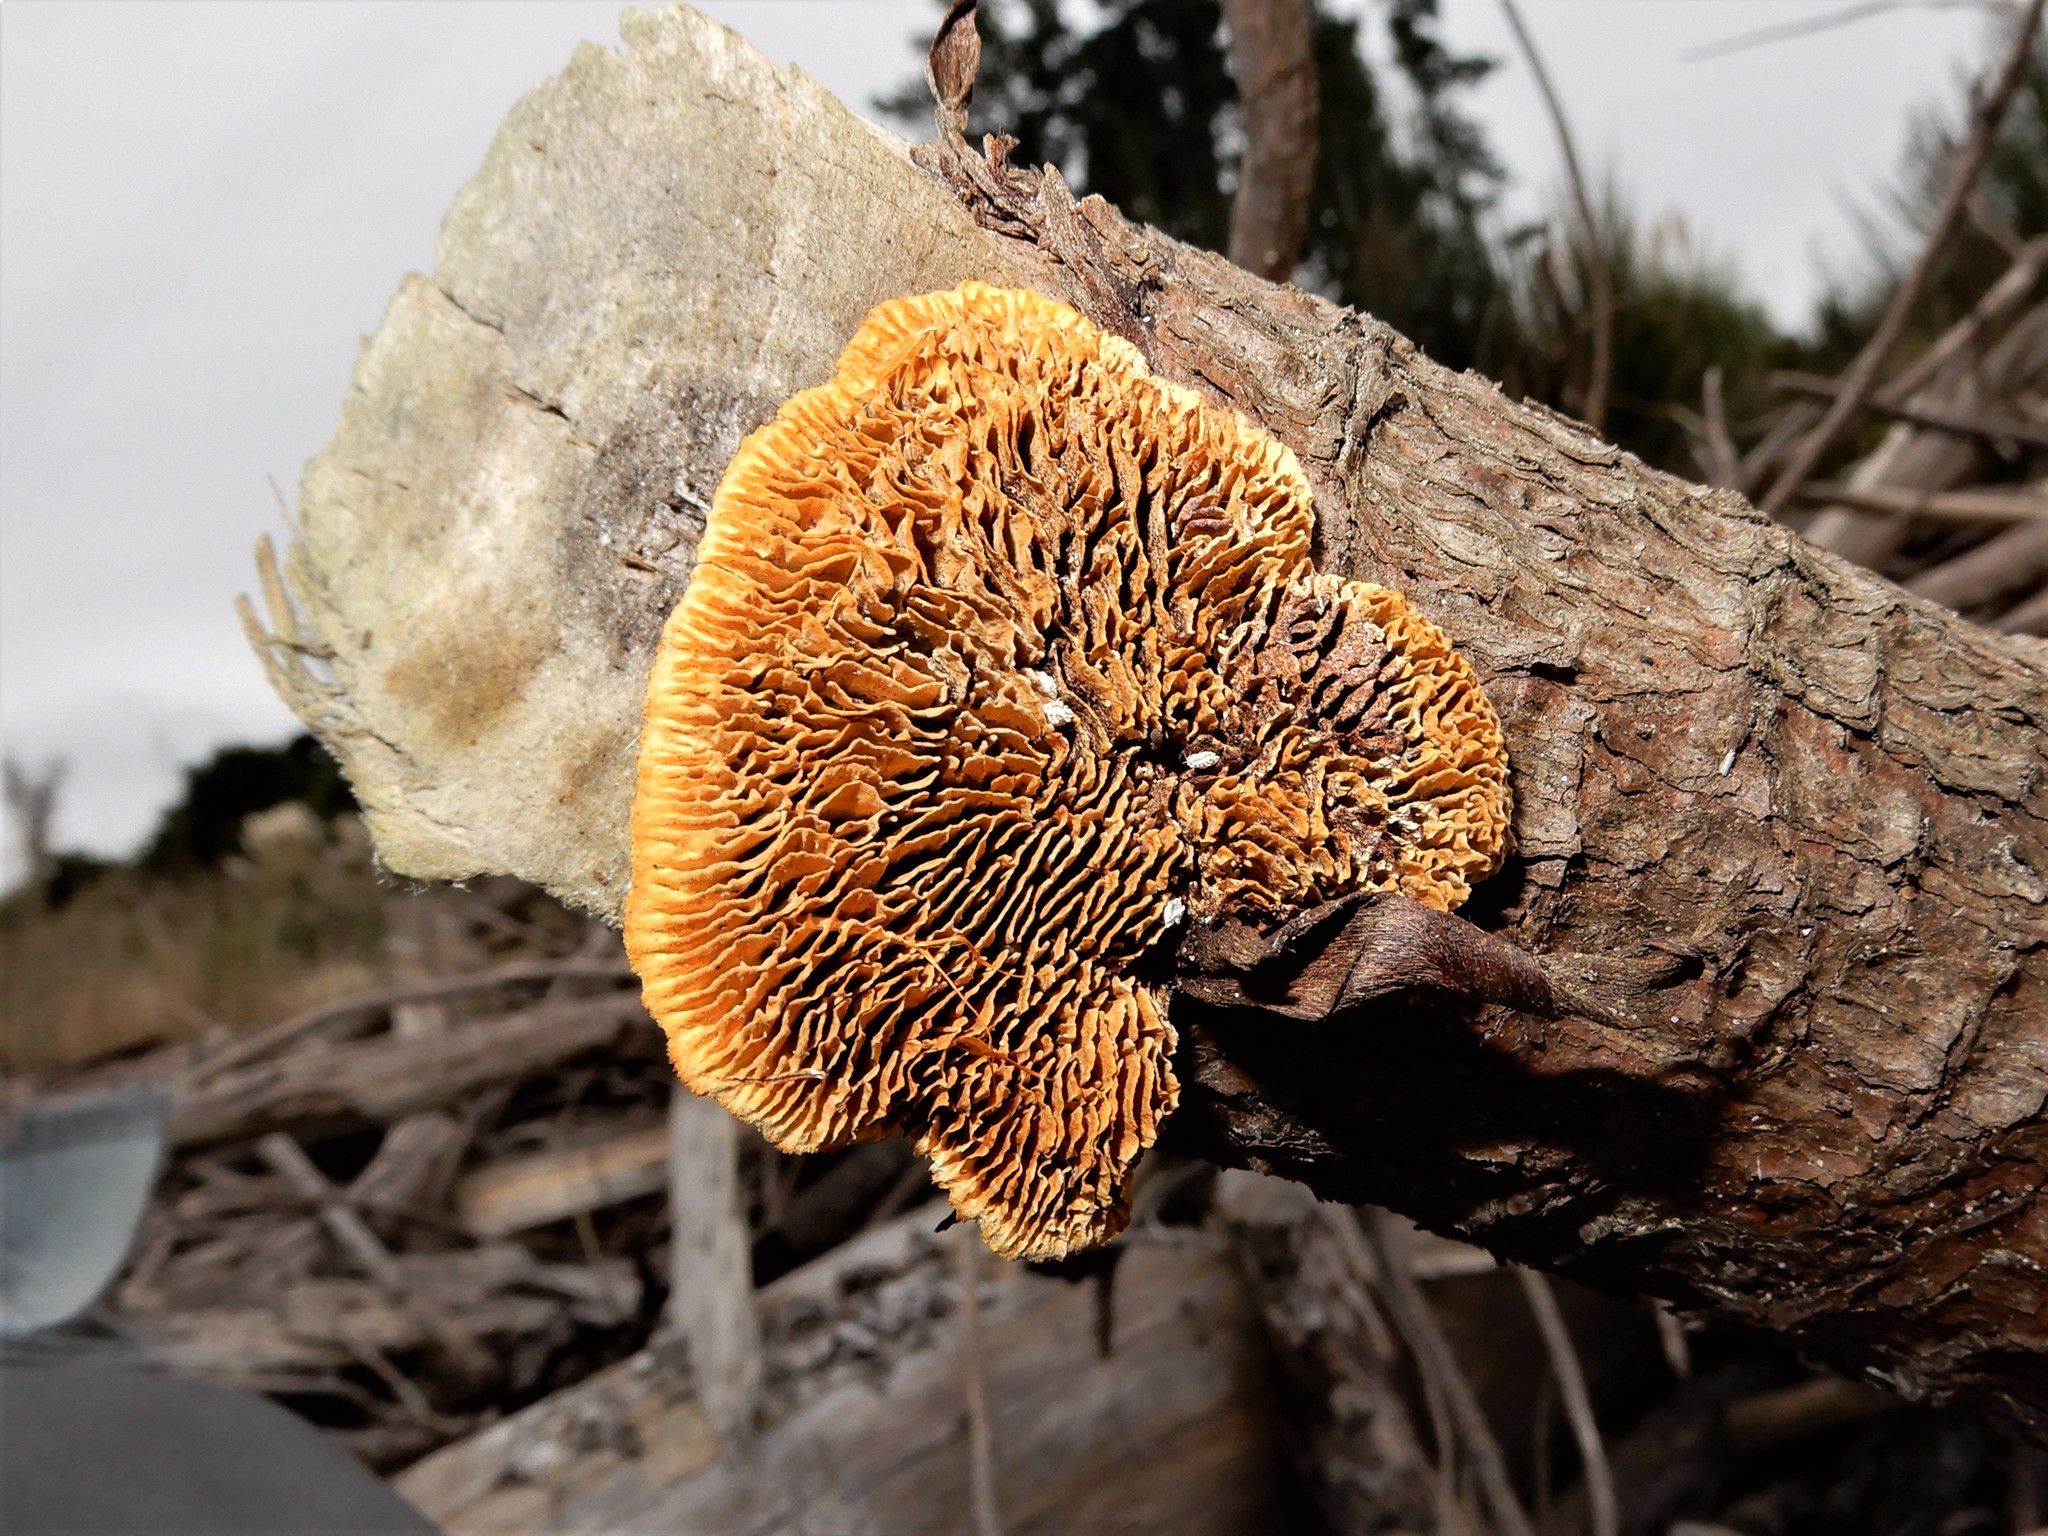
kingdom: Fungi
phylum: Basidiomycota
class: Agaricomycetes
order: Gloeophyllales
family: Gloeophyllaceae
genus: Gloeophyllum
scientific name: Gloeophyllum sepiarium
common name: Conifer mazegill
